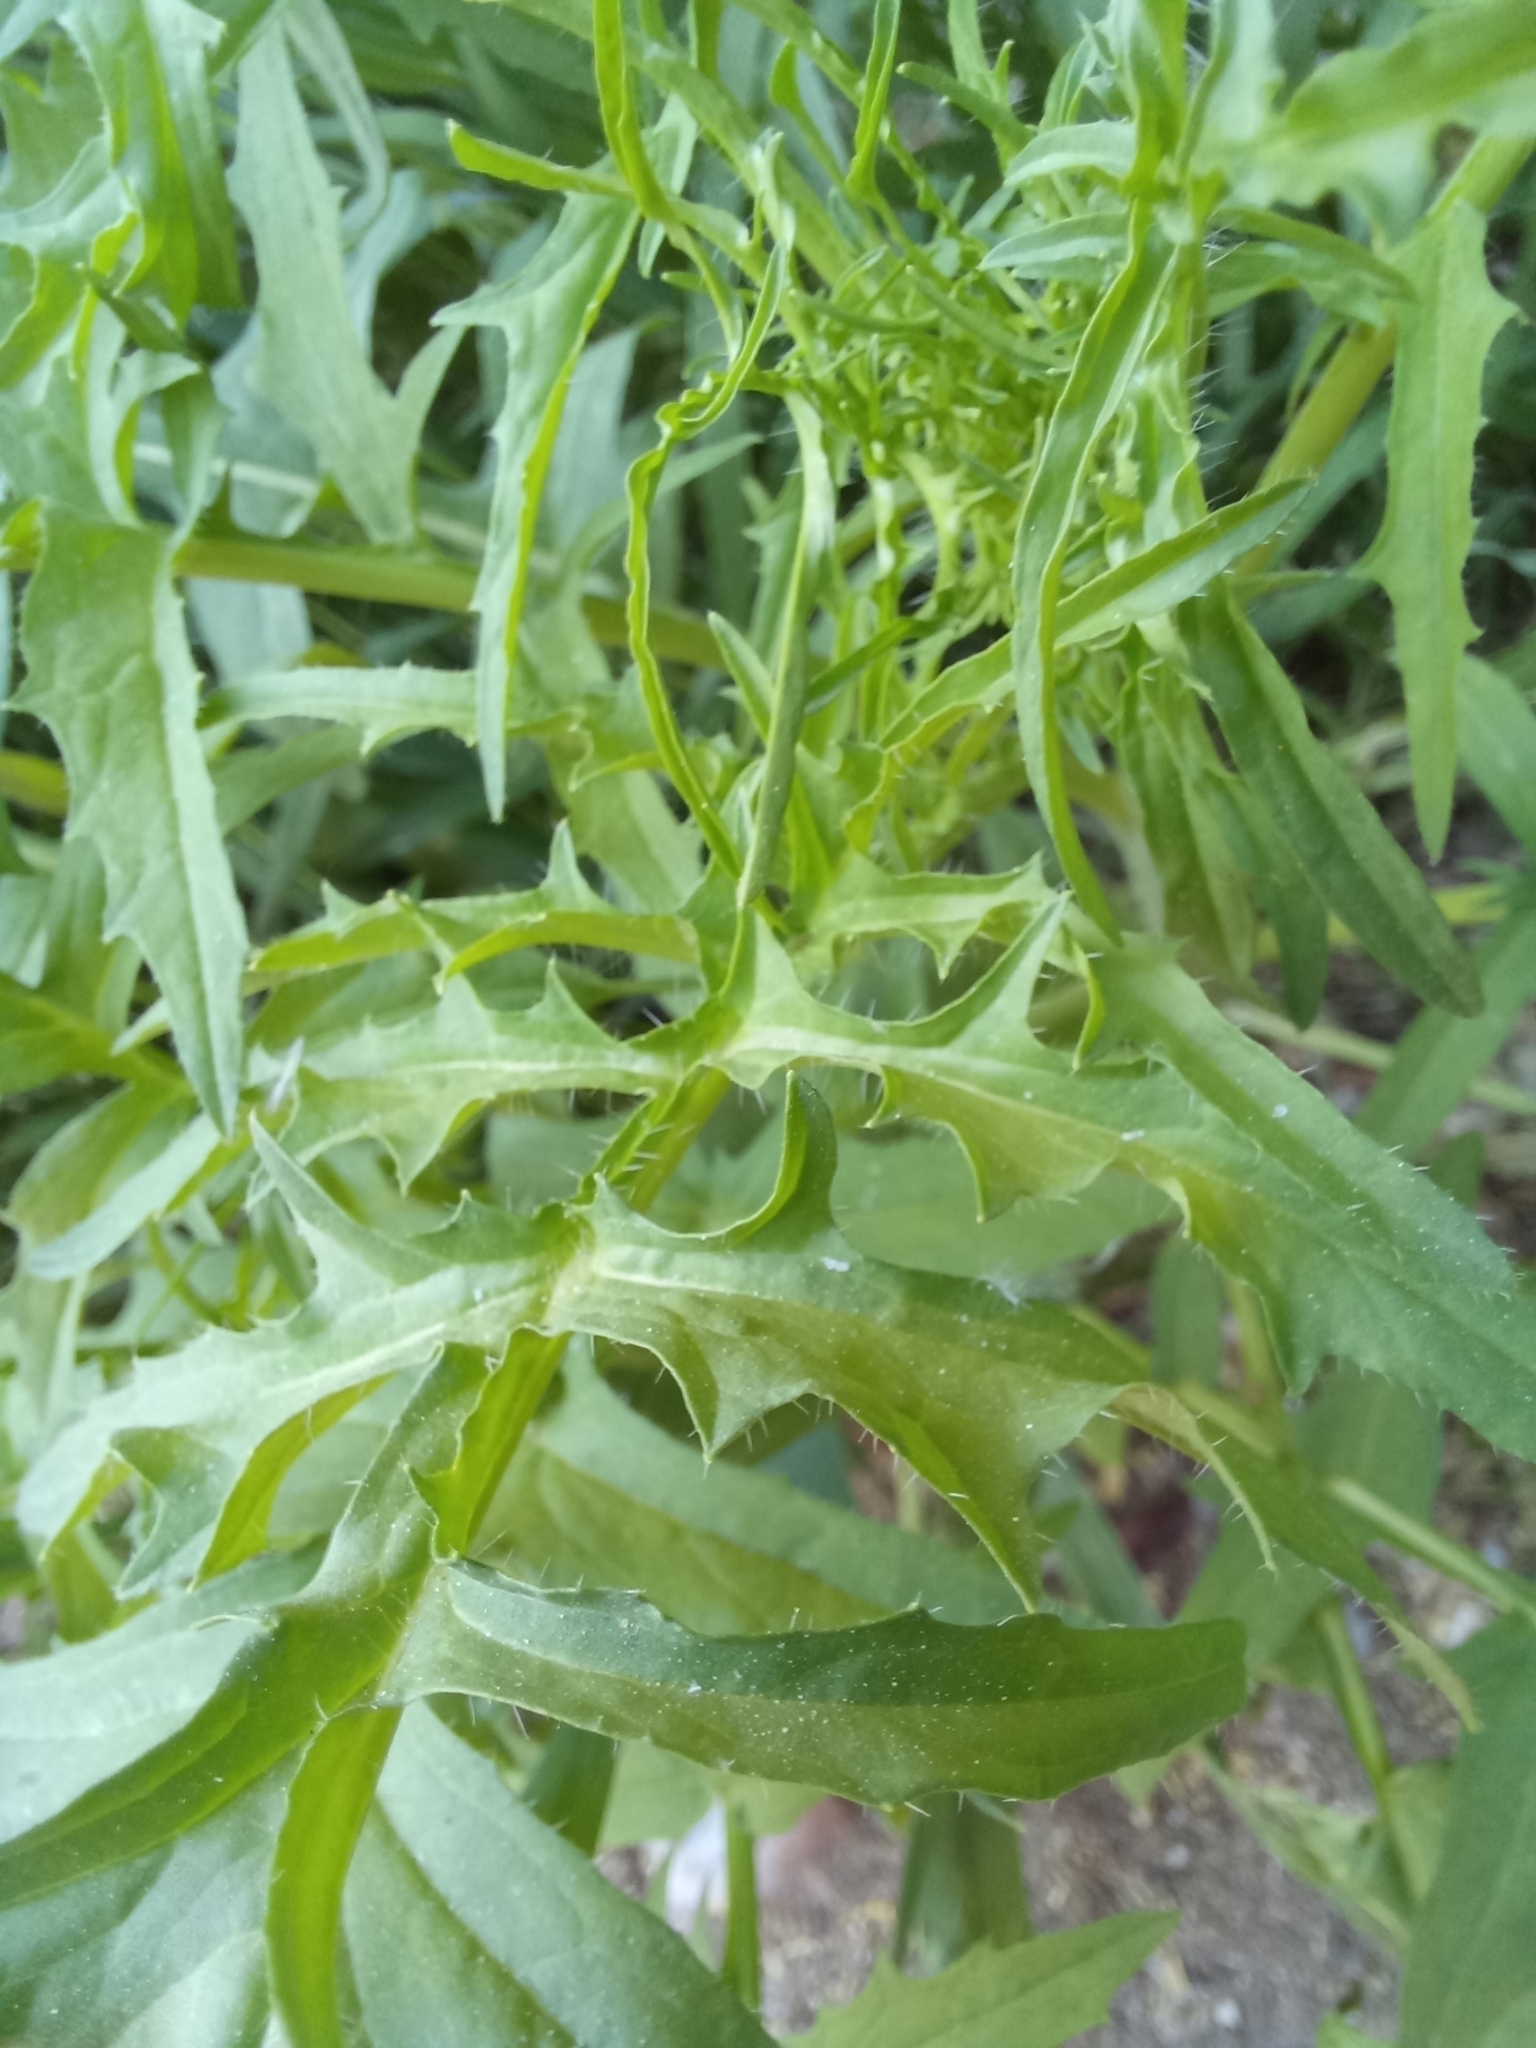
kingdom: Plantae
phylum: Tracheophyta
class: Magnoliopsida
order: Brassicales
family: Brassicaceae
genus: Sisymbrium
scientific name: Sisymbrium altissimum
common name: Tall rocket
